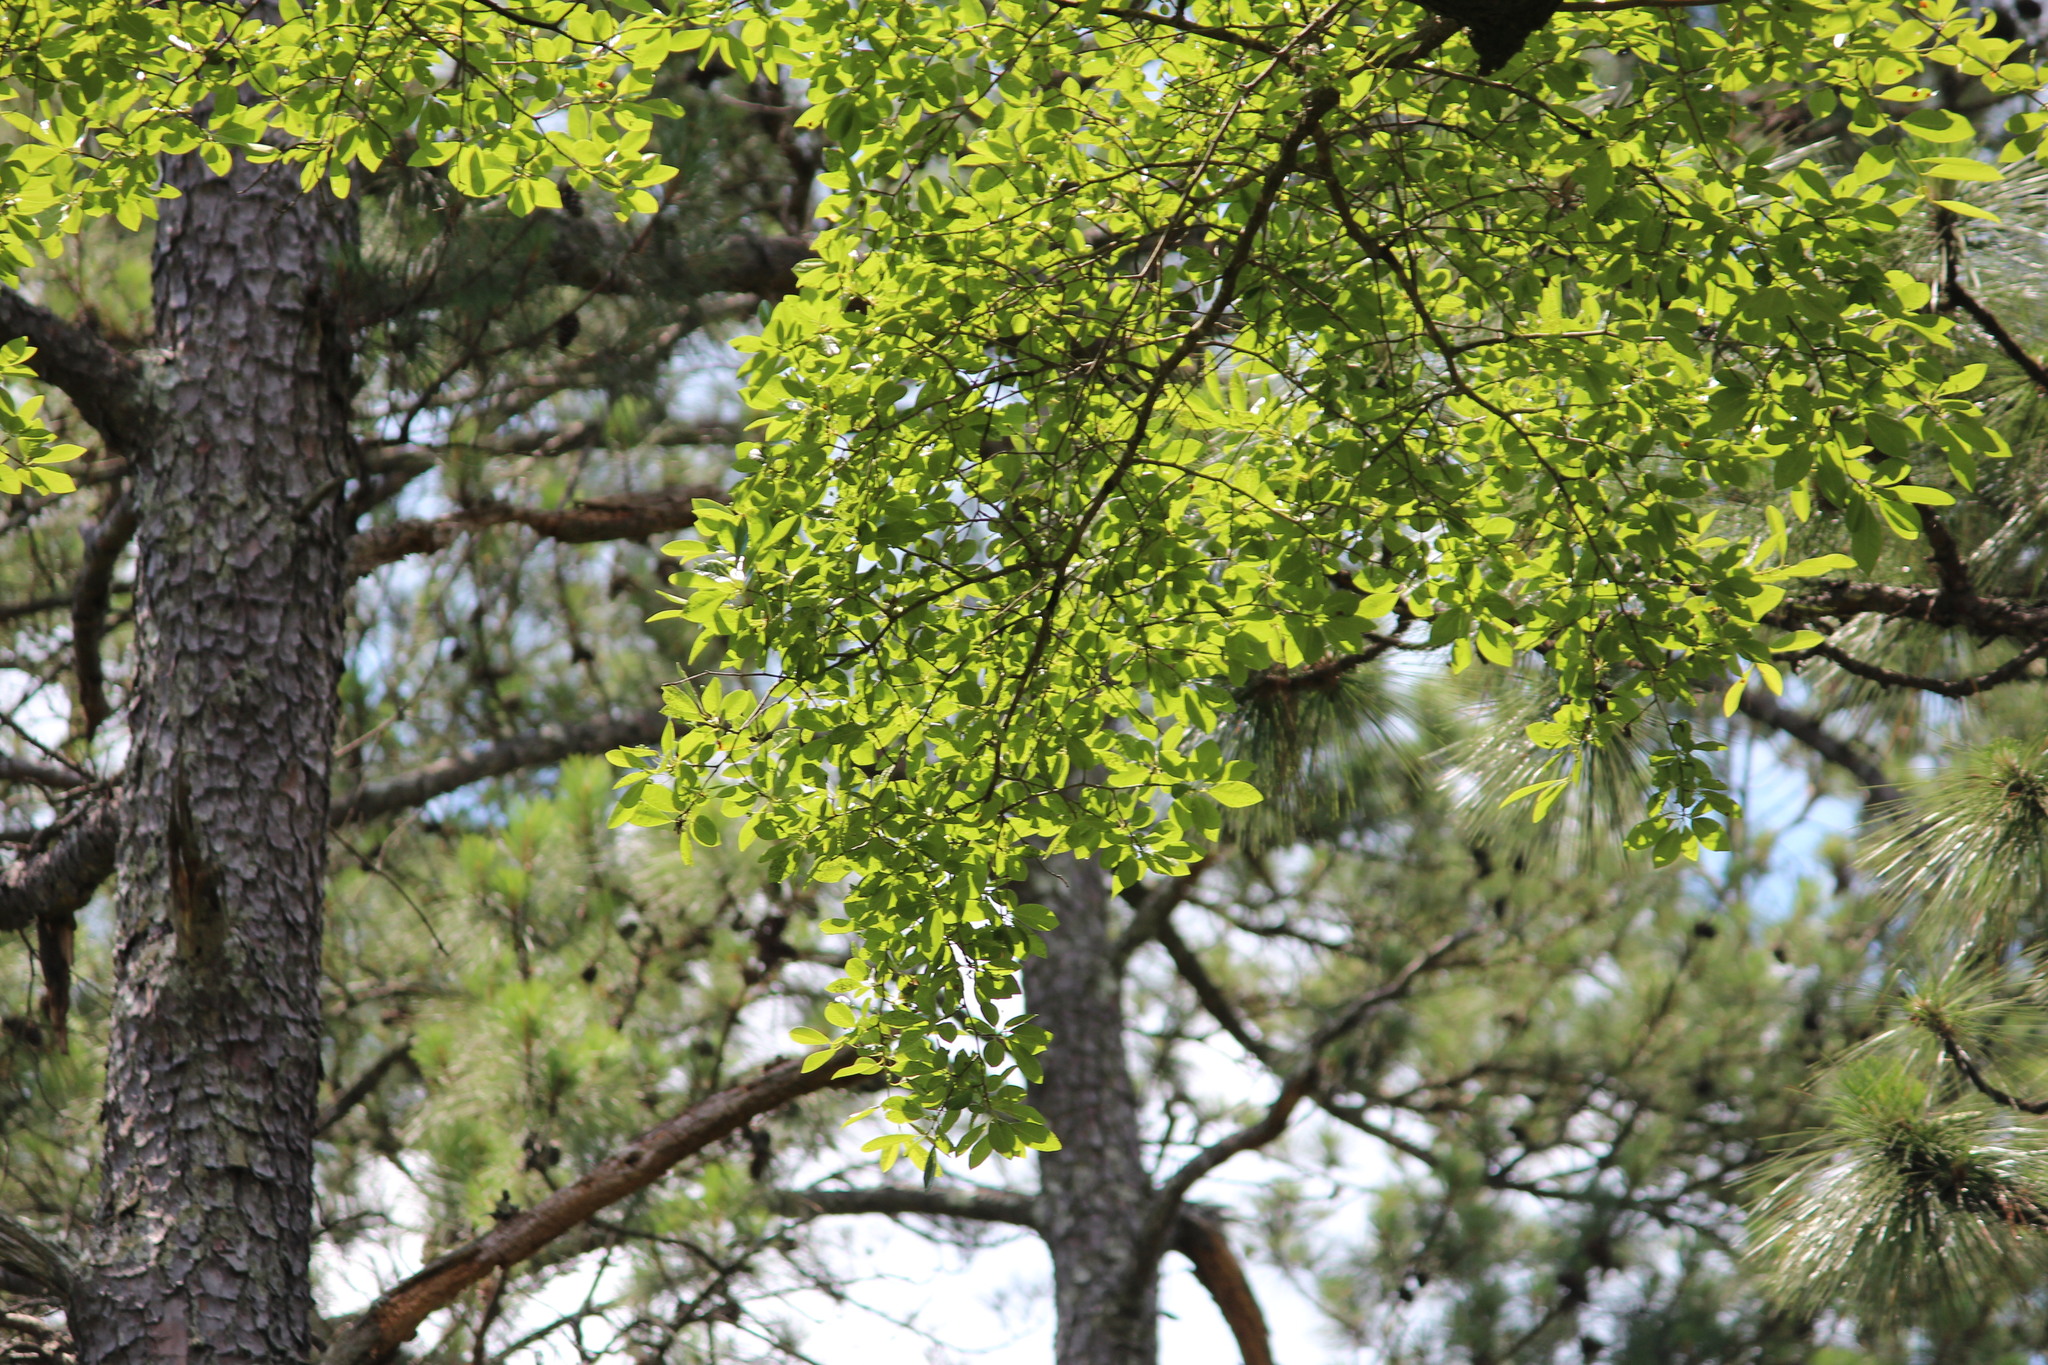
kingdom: Plantae
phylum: Tracheophyta
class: Magnoliopsida
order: Cornales
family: Nyssaceae
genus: Nyssa
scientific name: Nyssa sylvatica
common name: Black tupelo
